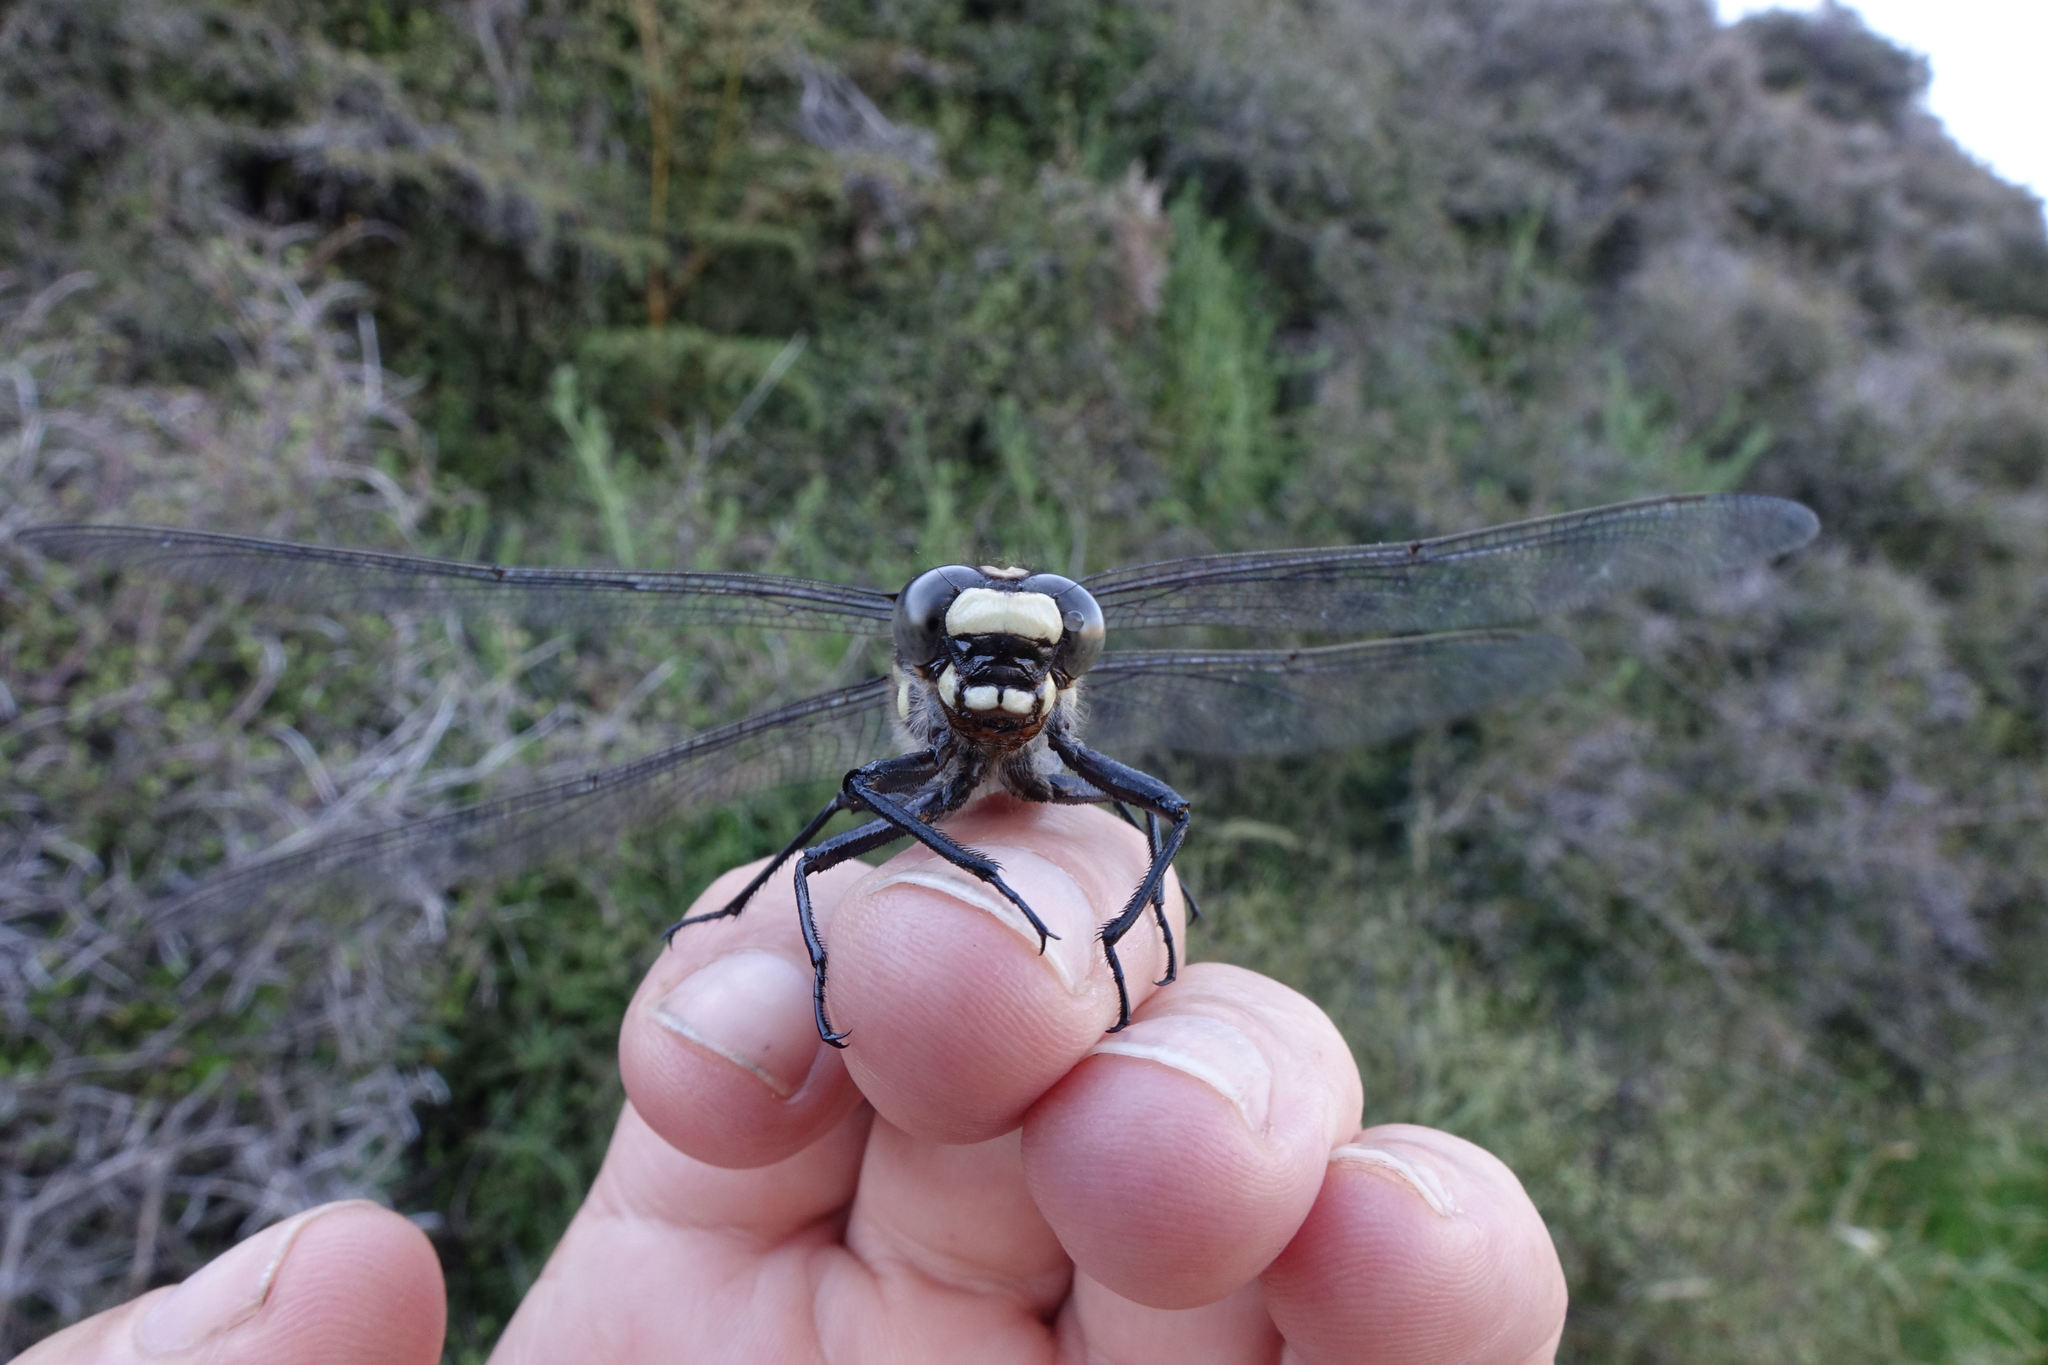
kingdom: Animalia
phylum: Arthropoda
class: Insecta
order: Odonata
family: Petaluridae
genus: Uropetala
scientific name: Uropetala chiltoni
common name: Mountain giant dragonfly
